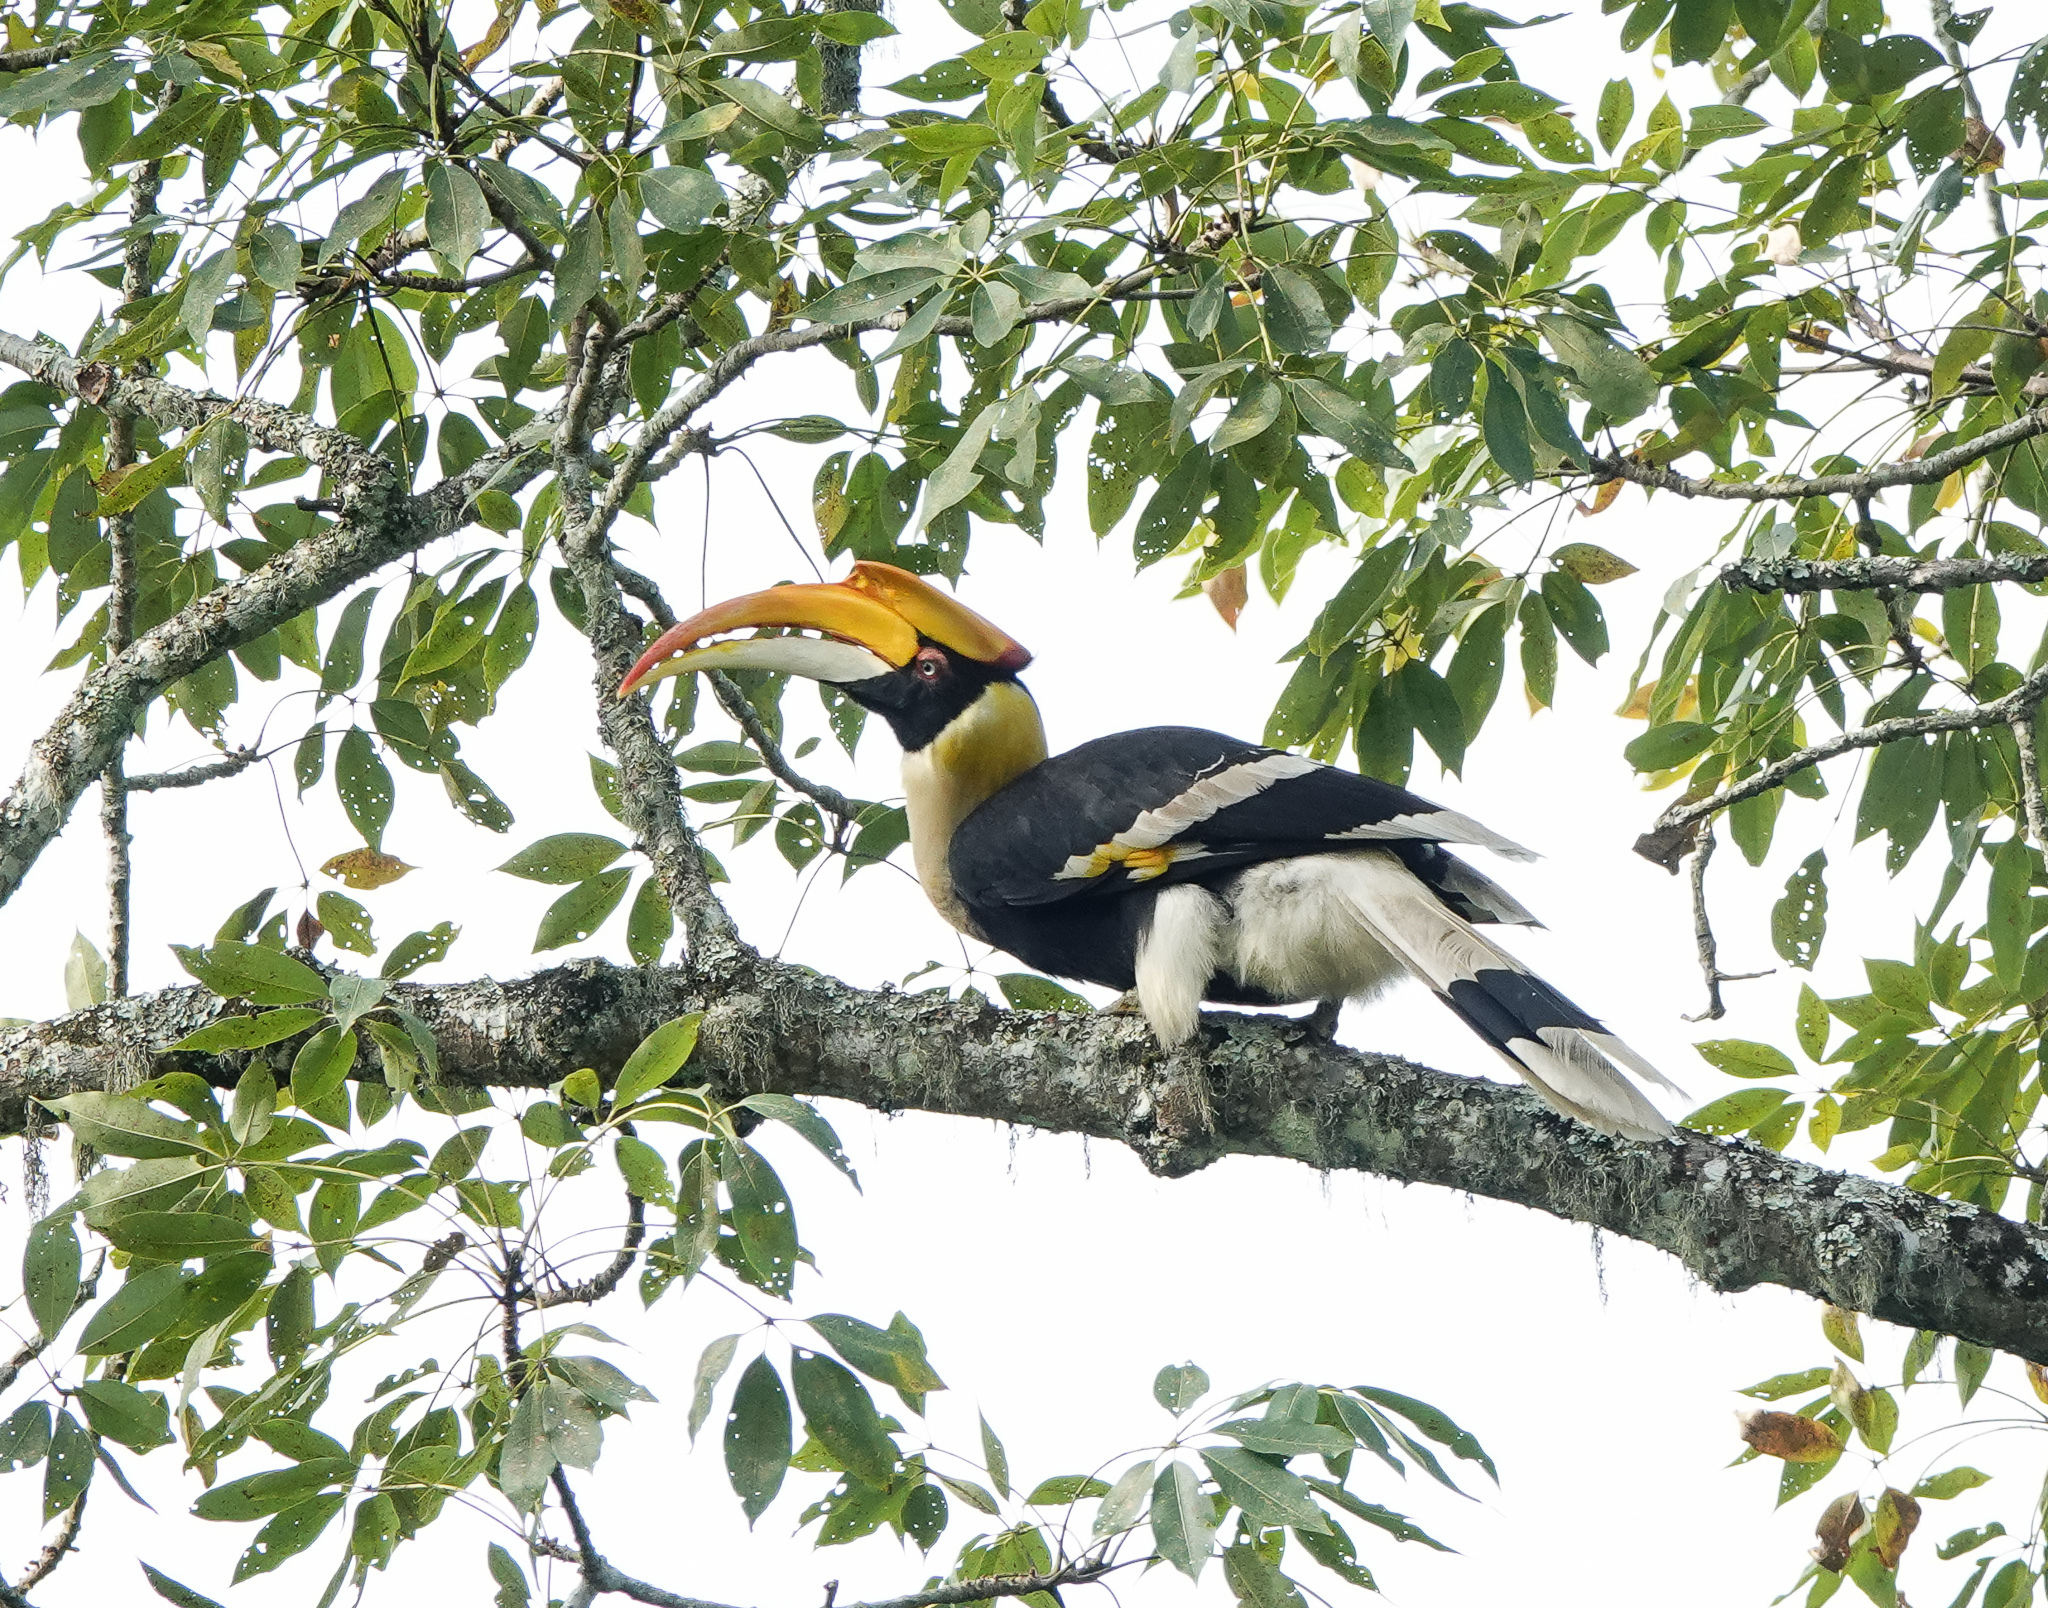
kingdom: Animalia
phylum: Chordata
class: Aves
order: Bucerotiformes
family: Bucerotidae
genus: Buceros
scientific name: Buceros bicornis
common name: Great hornbill
